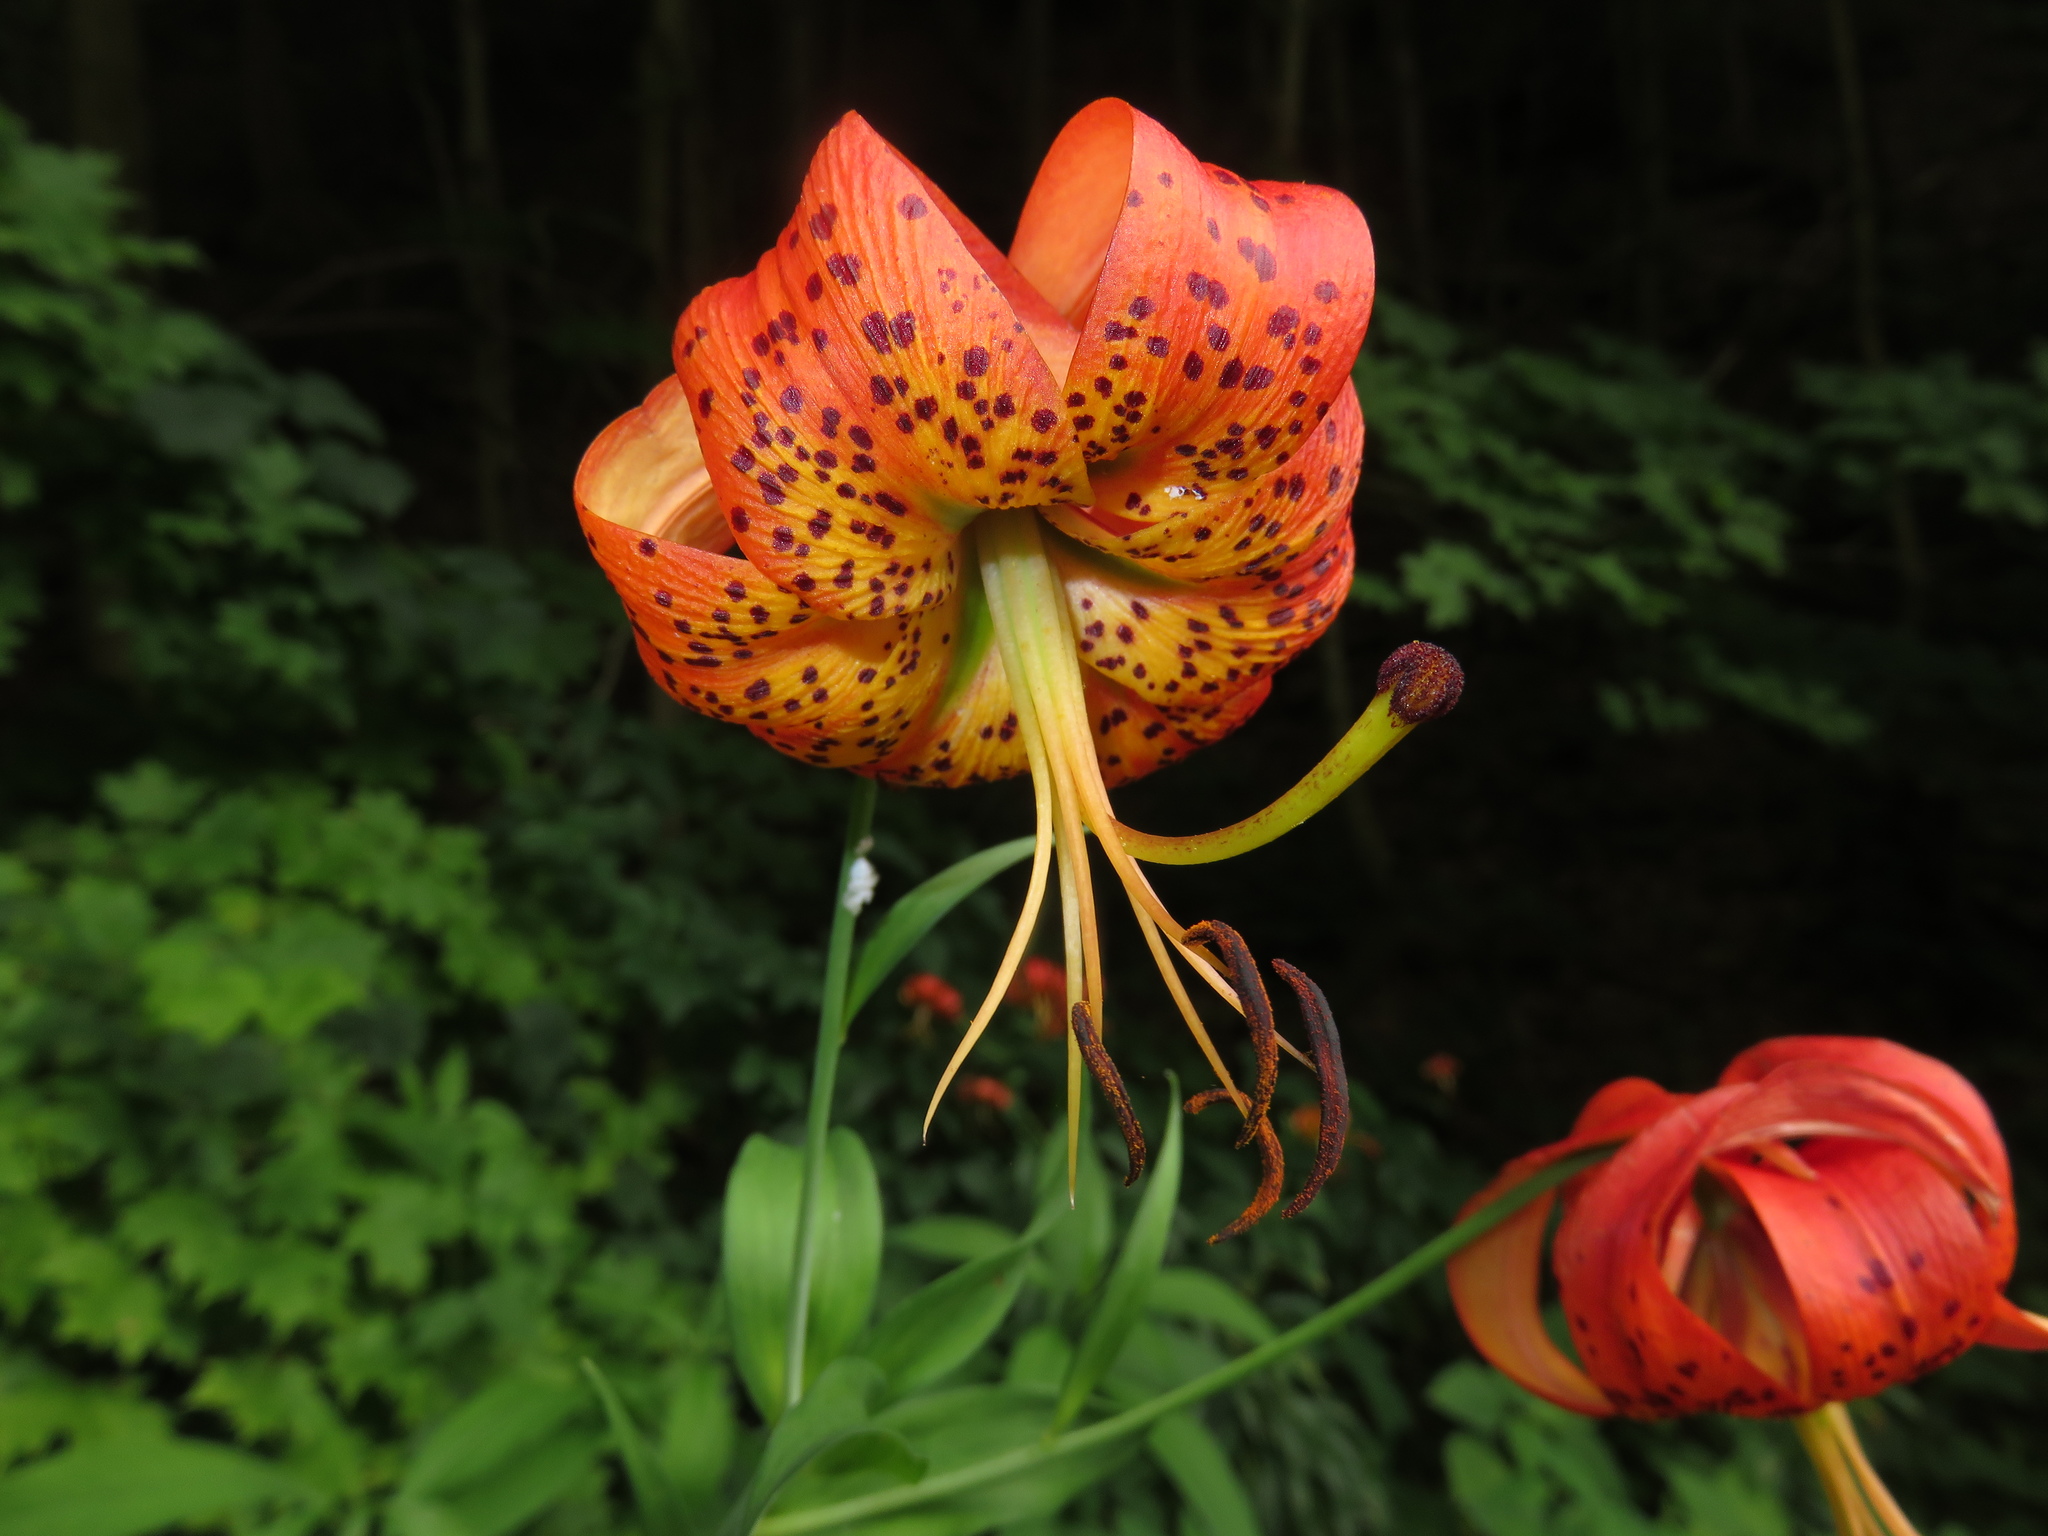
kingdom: Plantae
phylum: Tracheophyta
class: Liliopsida
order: Liliales
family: Liliaceae
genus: Lilium
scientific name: Lilium superbum
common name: American turk's-cap lily
